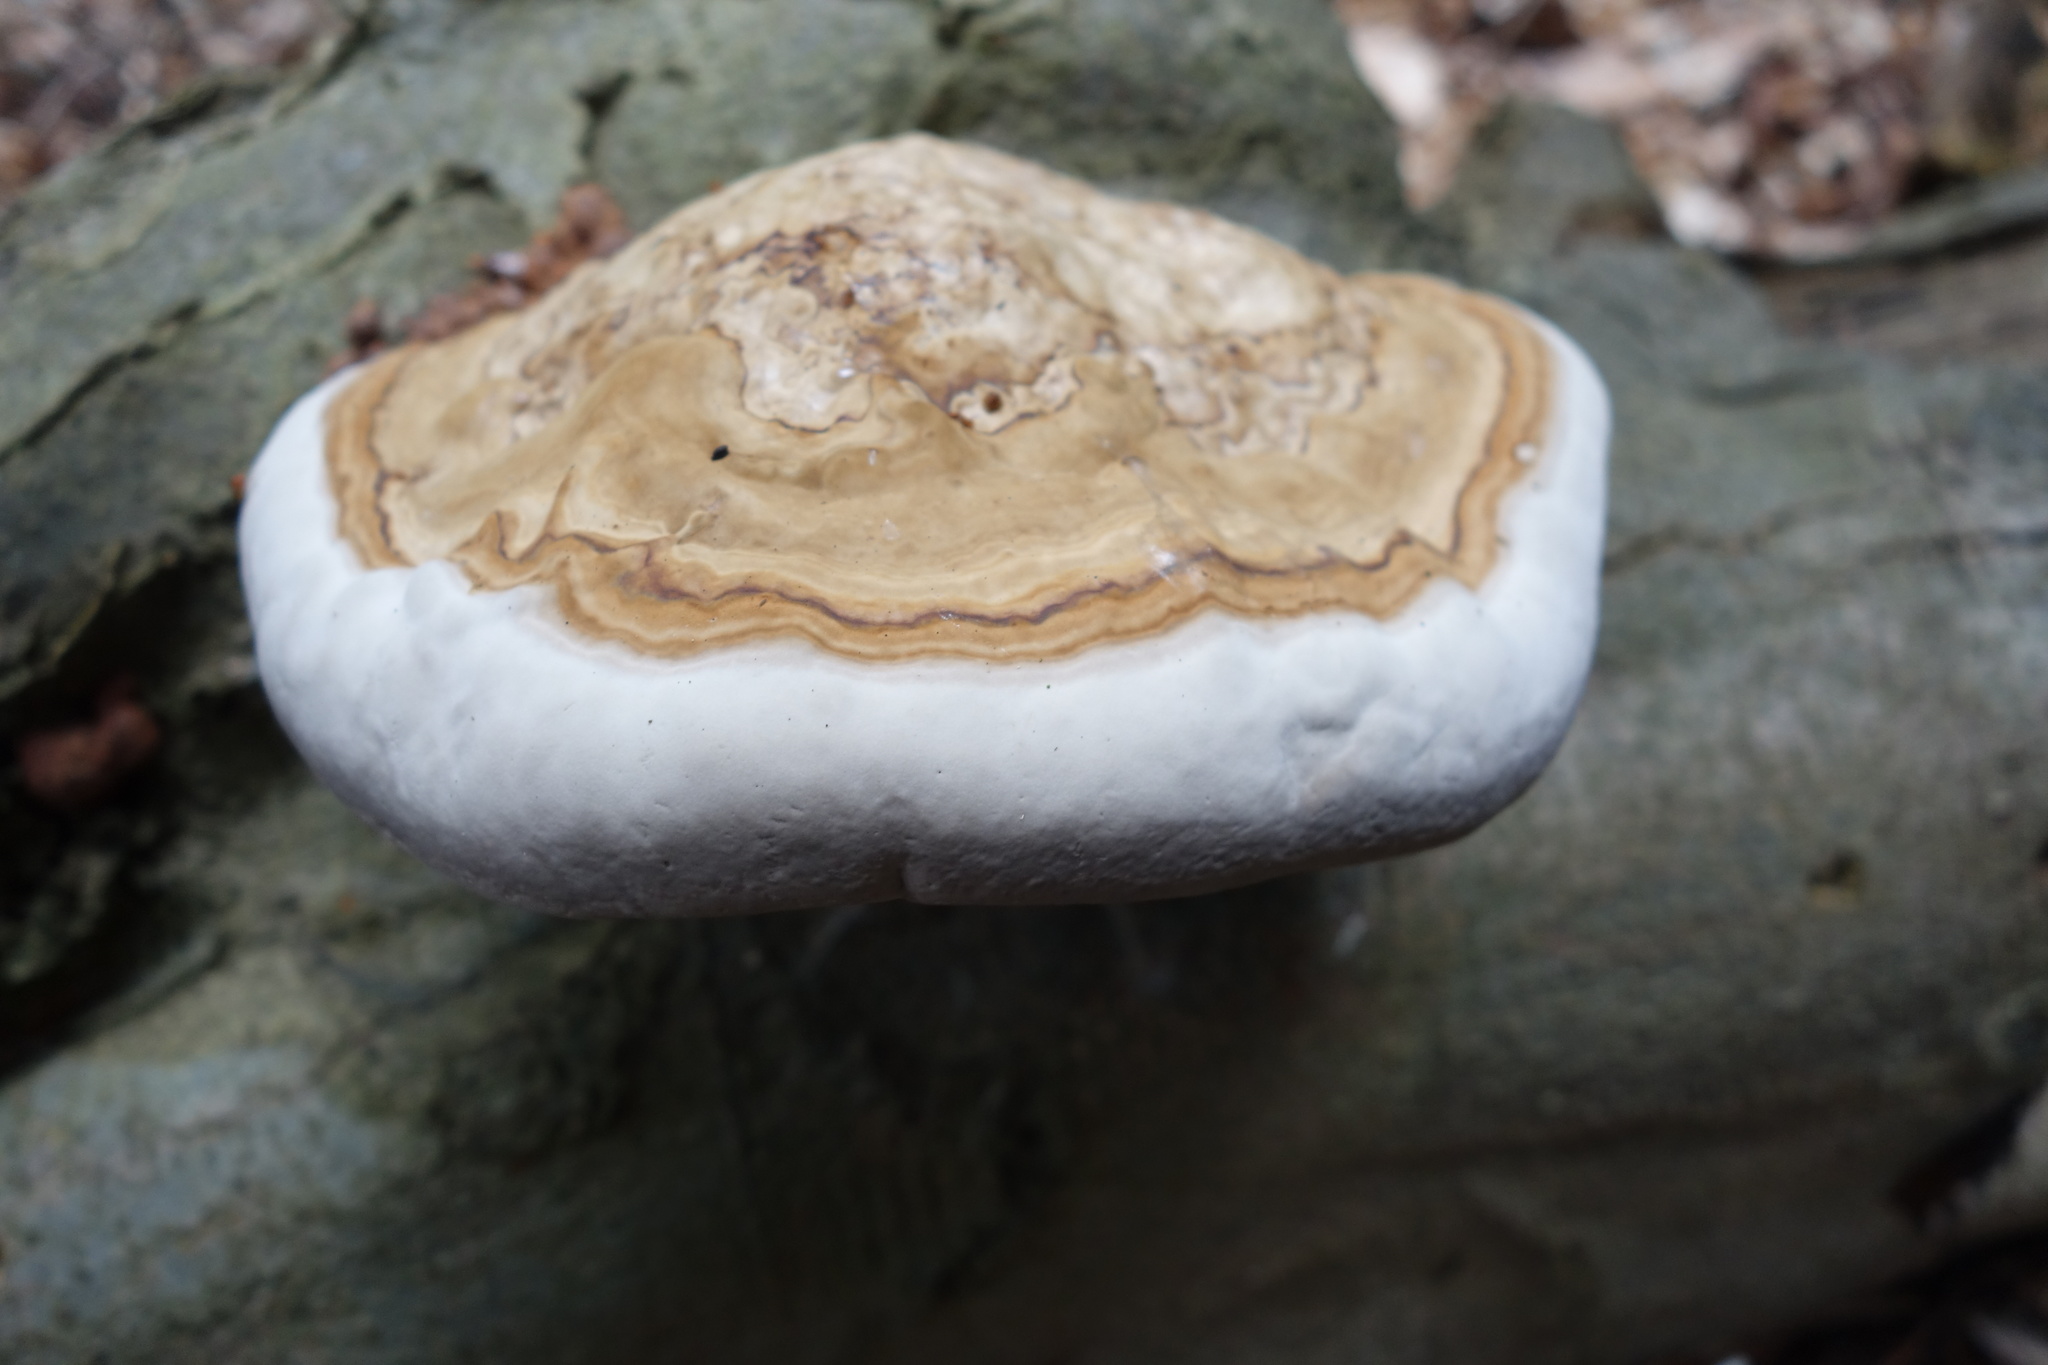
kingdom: Fungi
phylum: Basidiomycota
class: Agaricomycetes
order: Polyporales
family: Polyporaceae
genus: Fomes
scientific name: Fomes fomentarius
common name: Hoof fungus
